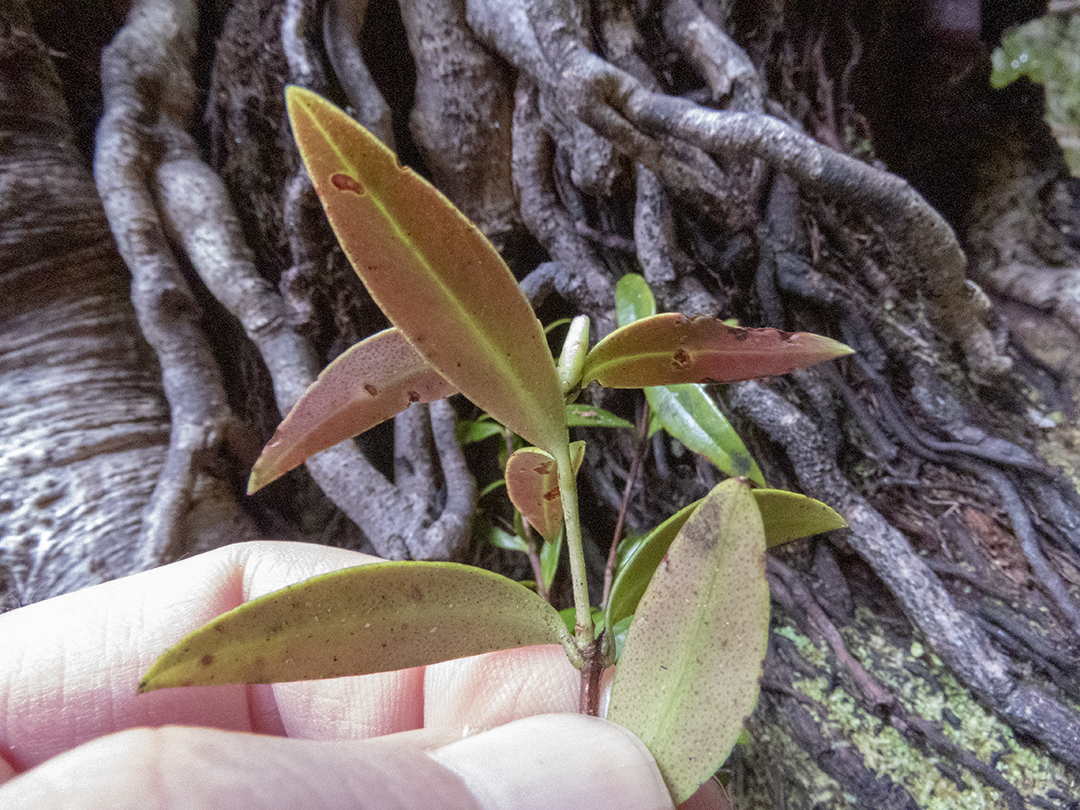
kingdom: Plantae
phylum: Tracheophyta
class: Magnoliopsida
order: Myrtales
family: Myrtaceae
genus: Metrosideros
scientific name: Metrosideros umbellata
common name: Southern rata
